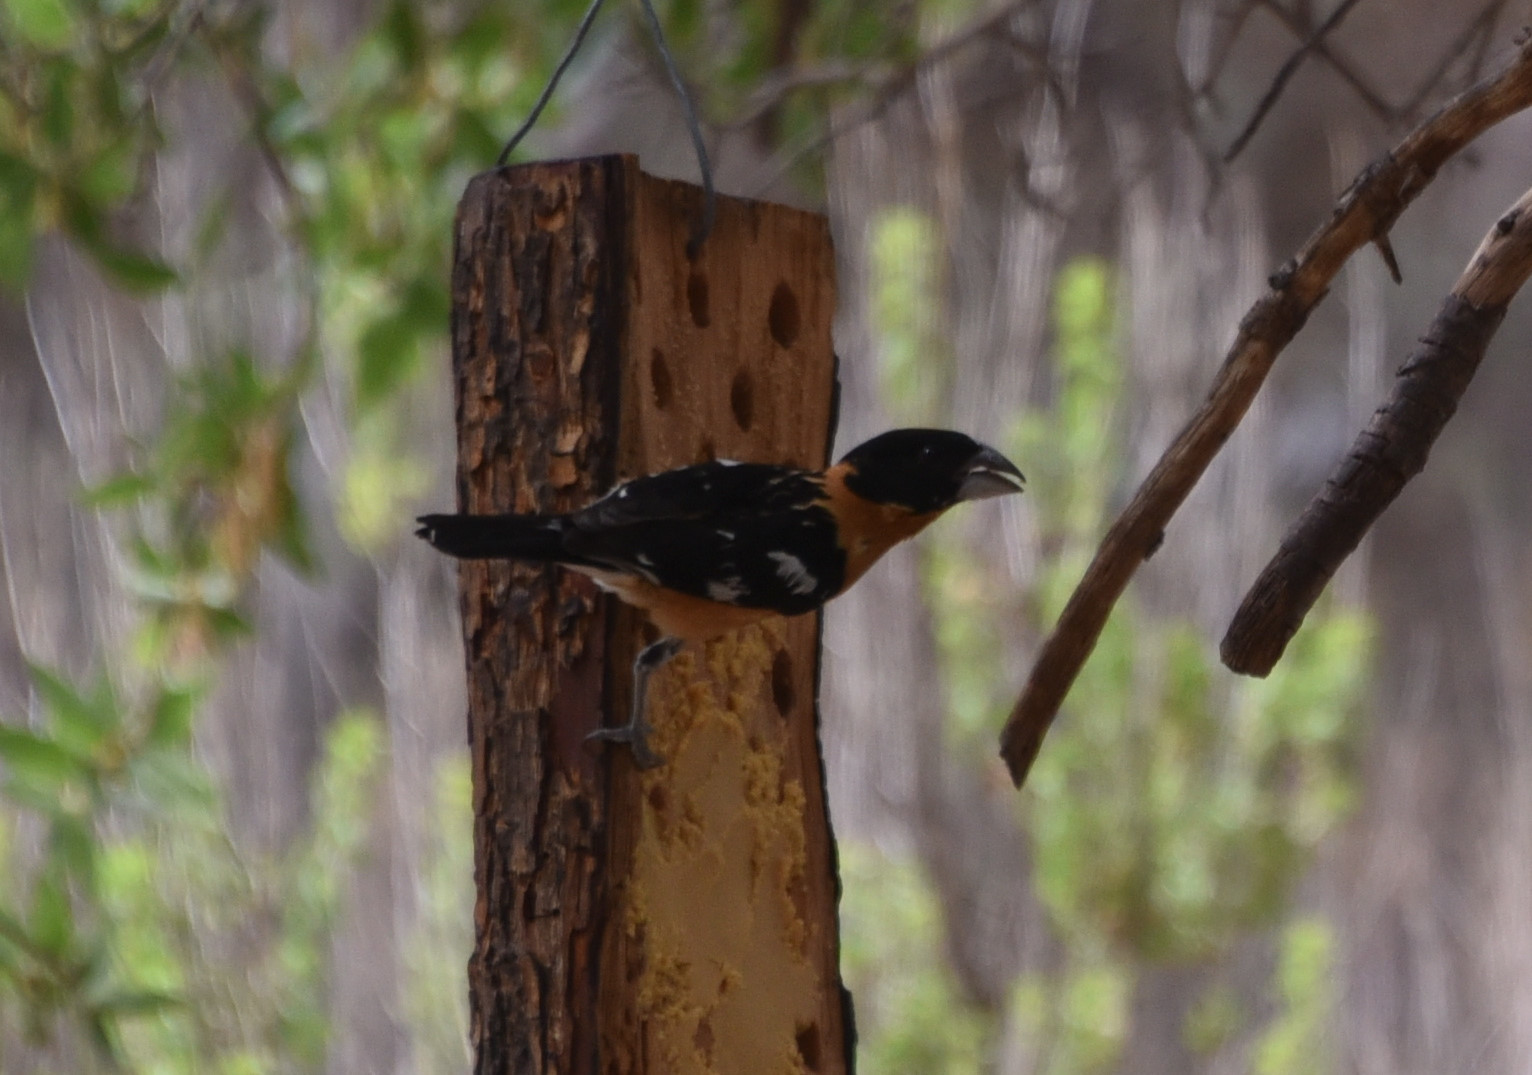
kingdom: Animalia
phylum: Chordata
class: Aves
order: Passeriformes
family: Cardinalidae
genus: Pheucticus
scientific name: Pheucticus melanocephalus
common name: Black-headed grosbeak
